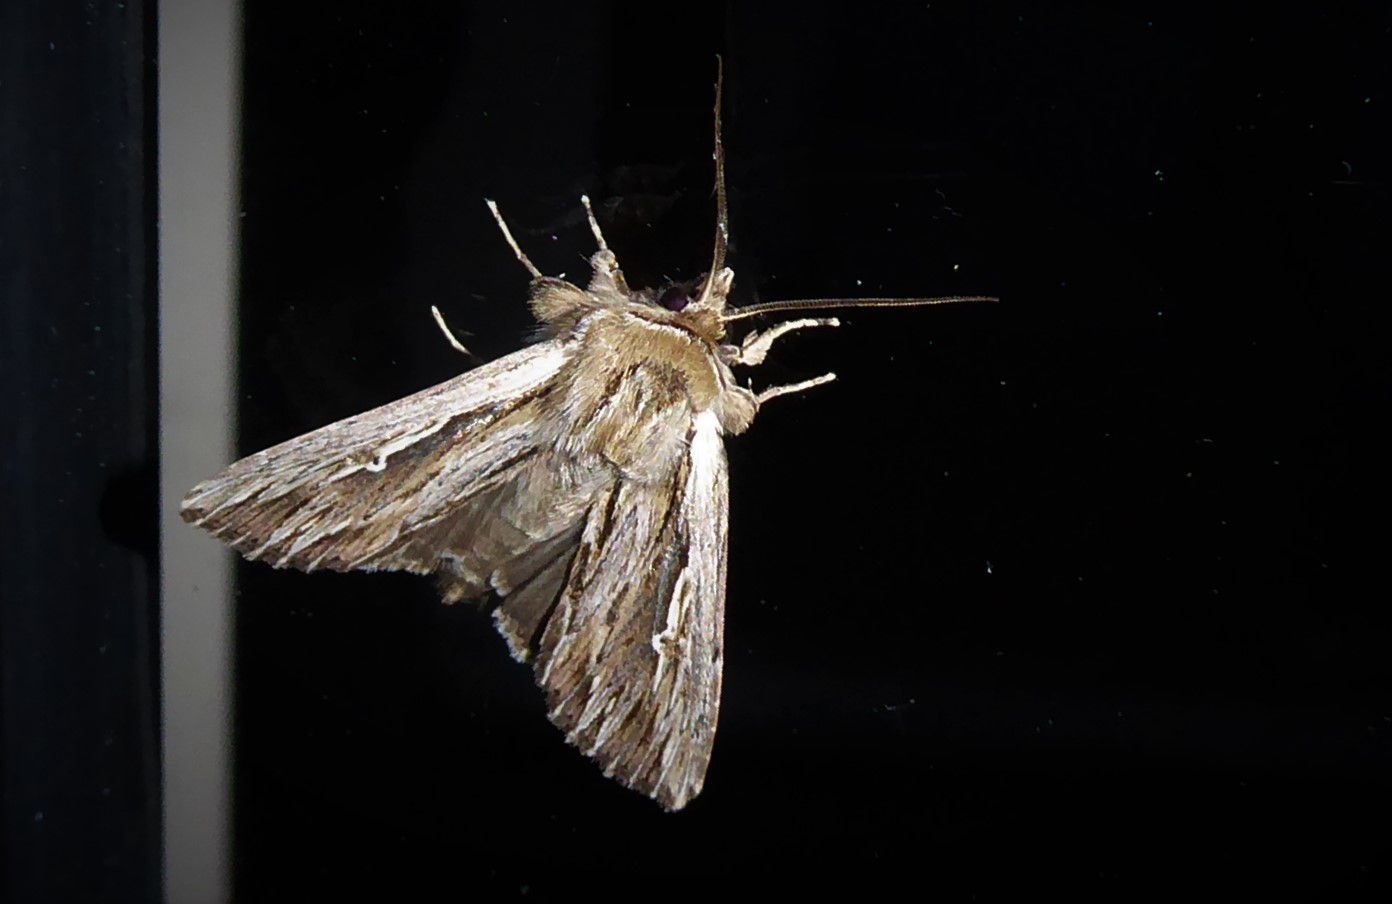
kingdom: Animalia
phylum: Arthropoda
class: Insecta
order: Lepidoptera
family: Noctuidae
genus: Persectania
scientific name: Persectania aversa
